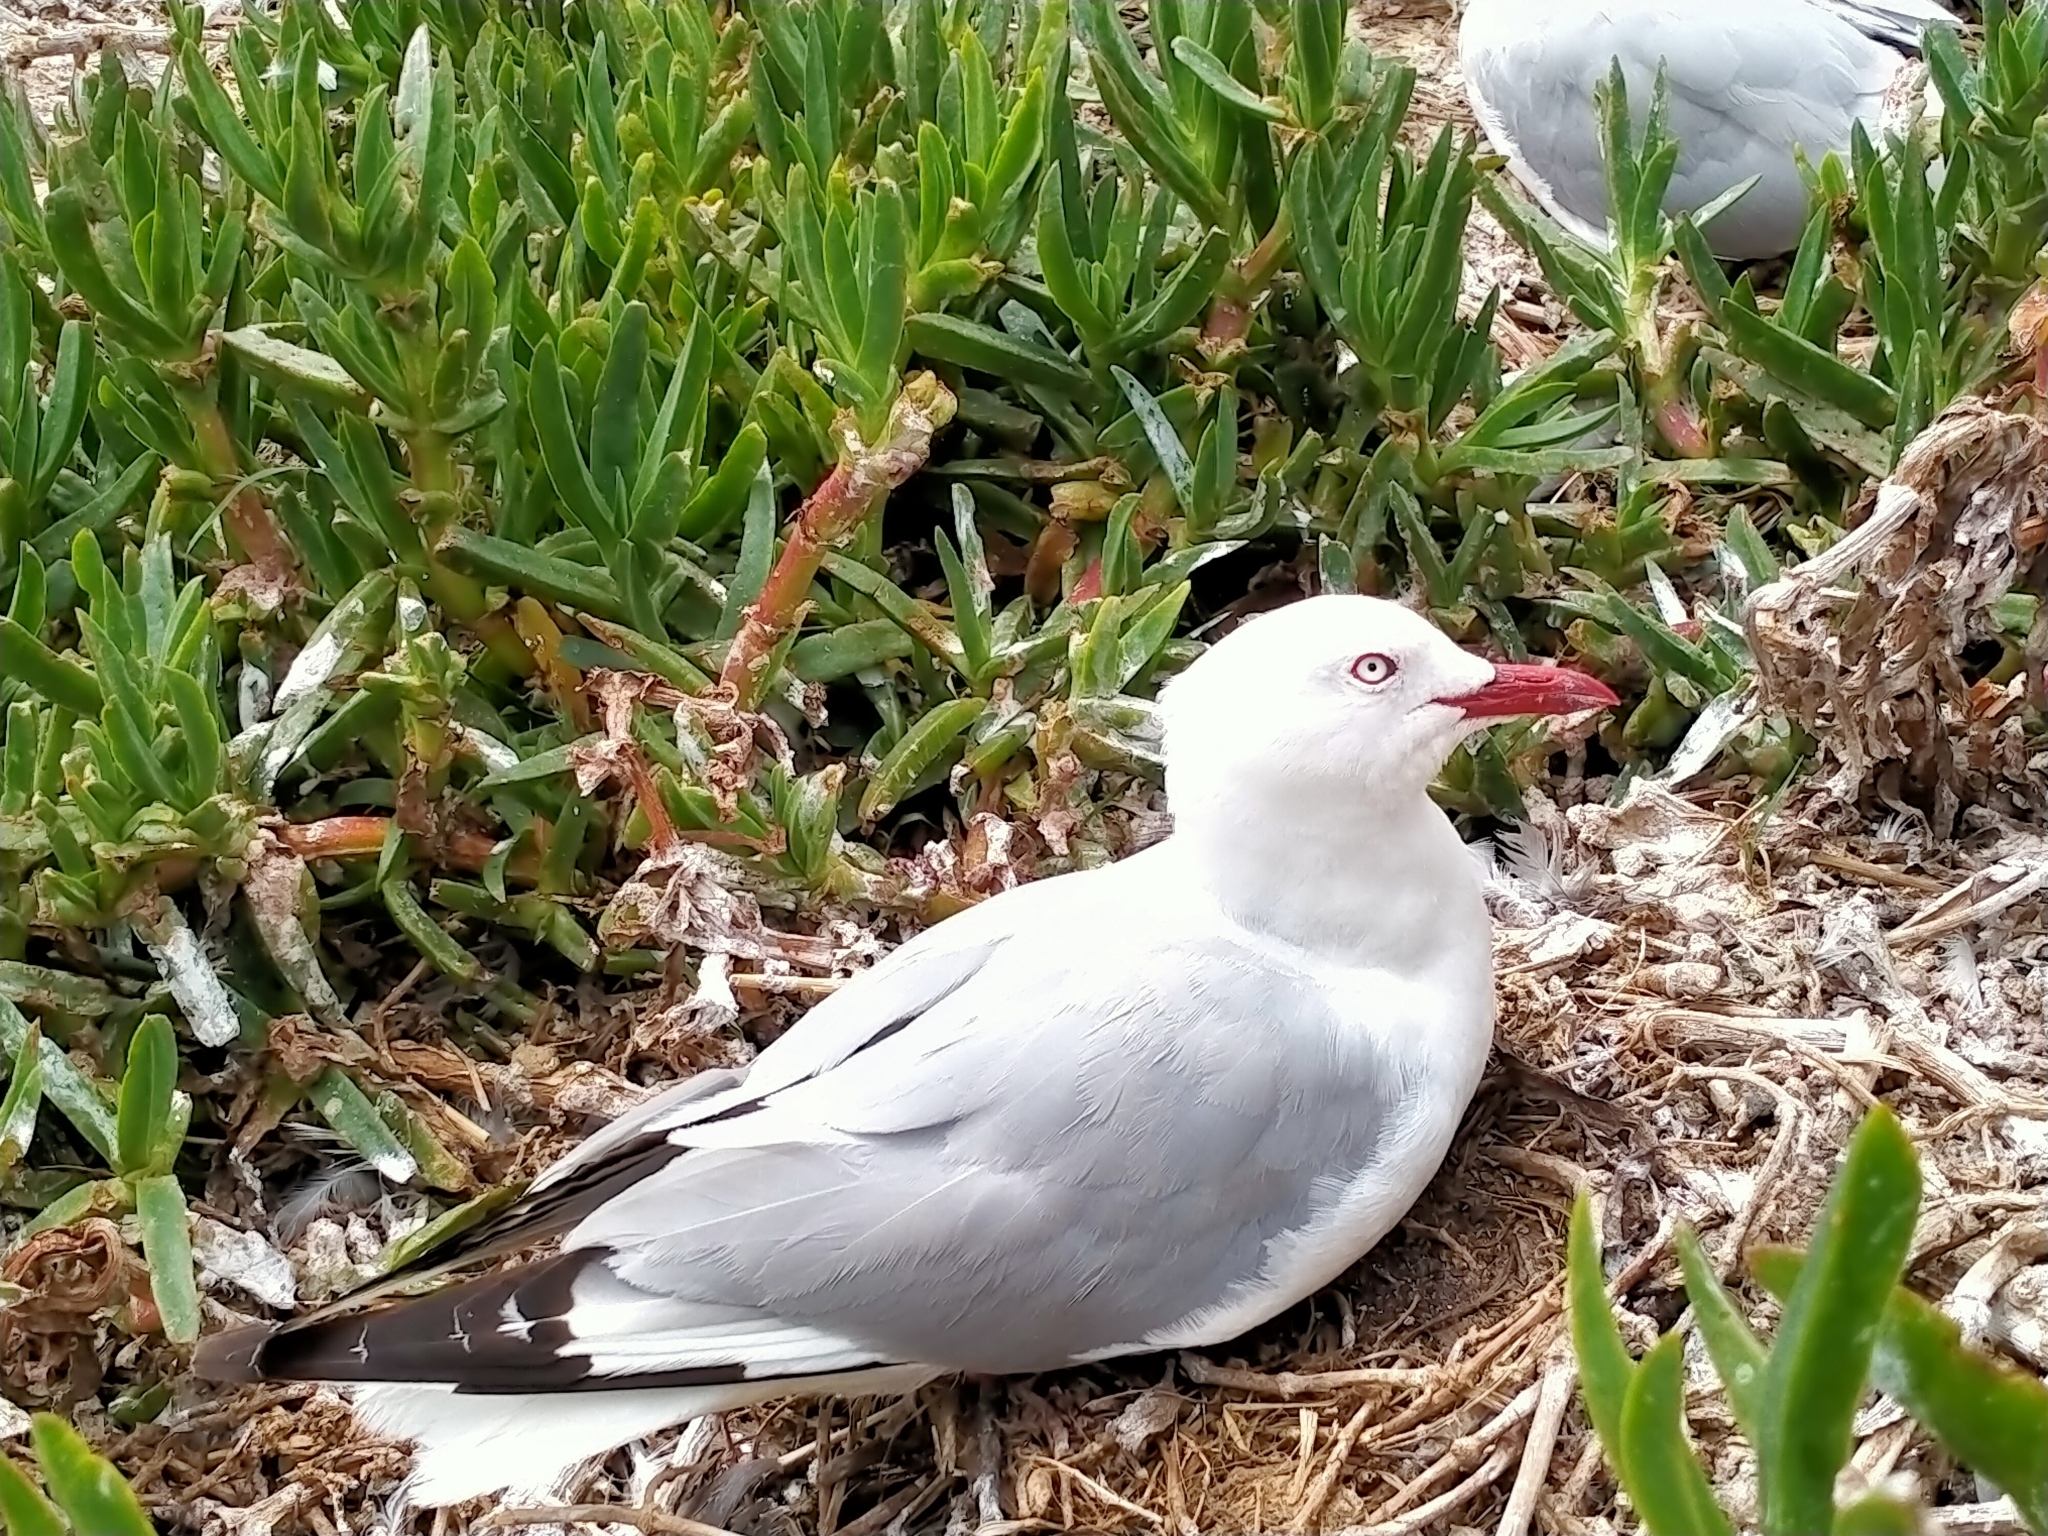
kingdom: Animalia
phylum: Chordata
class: Aves
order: Charadriiformes
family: Laridae
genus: Chroicocephalus
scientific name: Chroicocephalus novaehollandiae
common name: Silver gull
